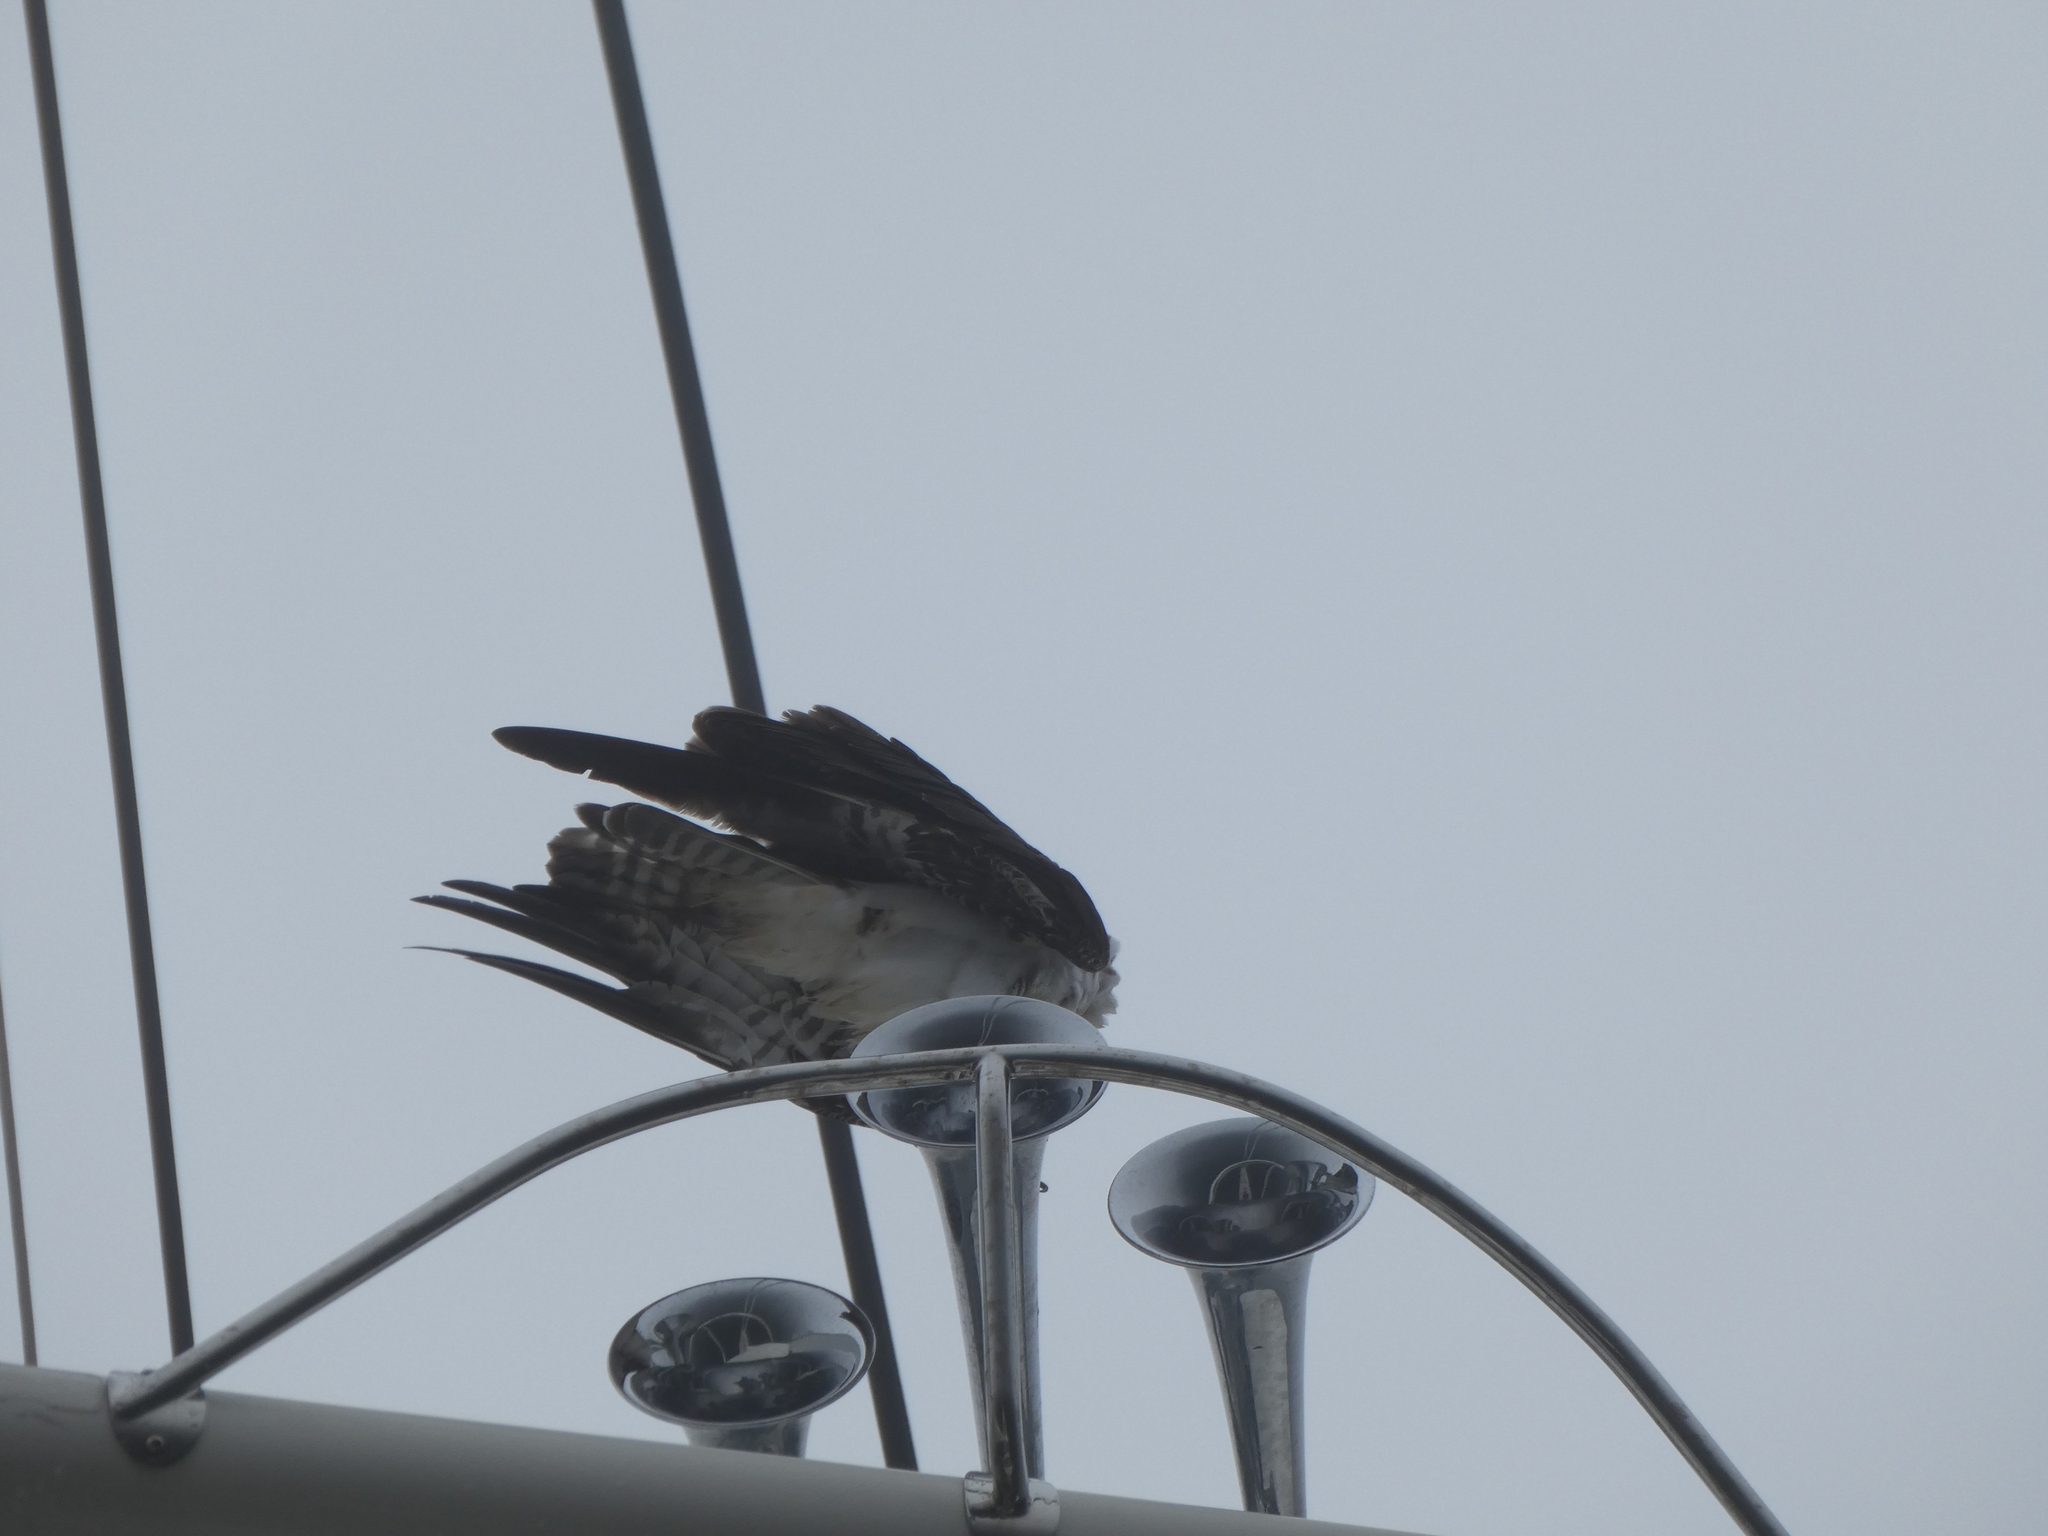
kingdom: Animalia
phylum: Chordata
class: Aves
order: Accipitriformes
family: Pandionidae
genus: Pandion
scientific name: Pandion haliaetus
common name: Osprey
